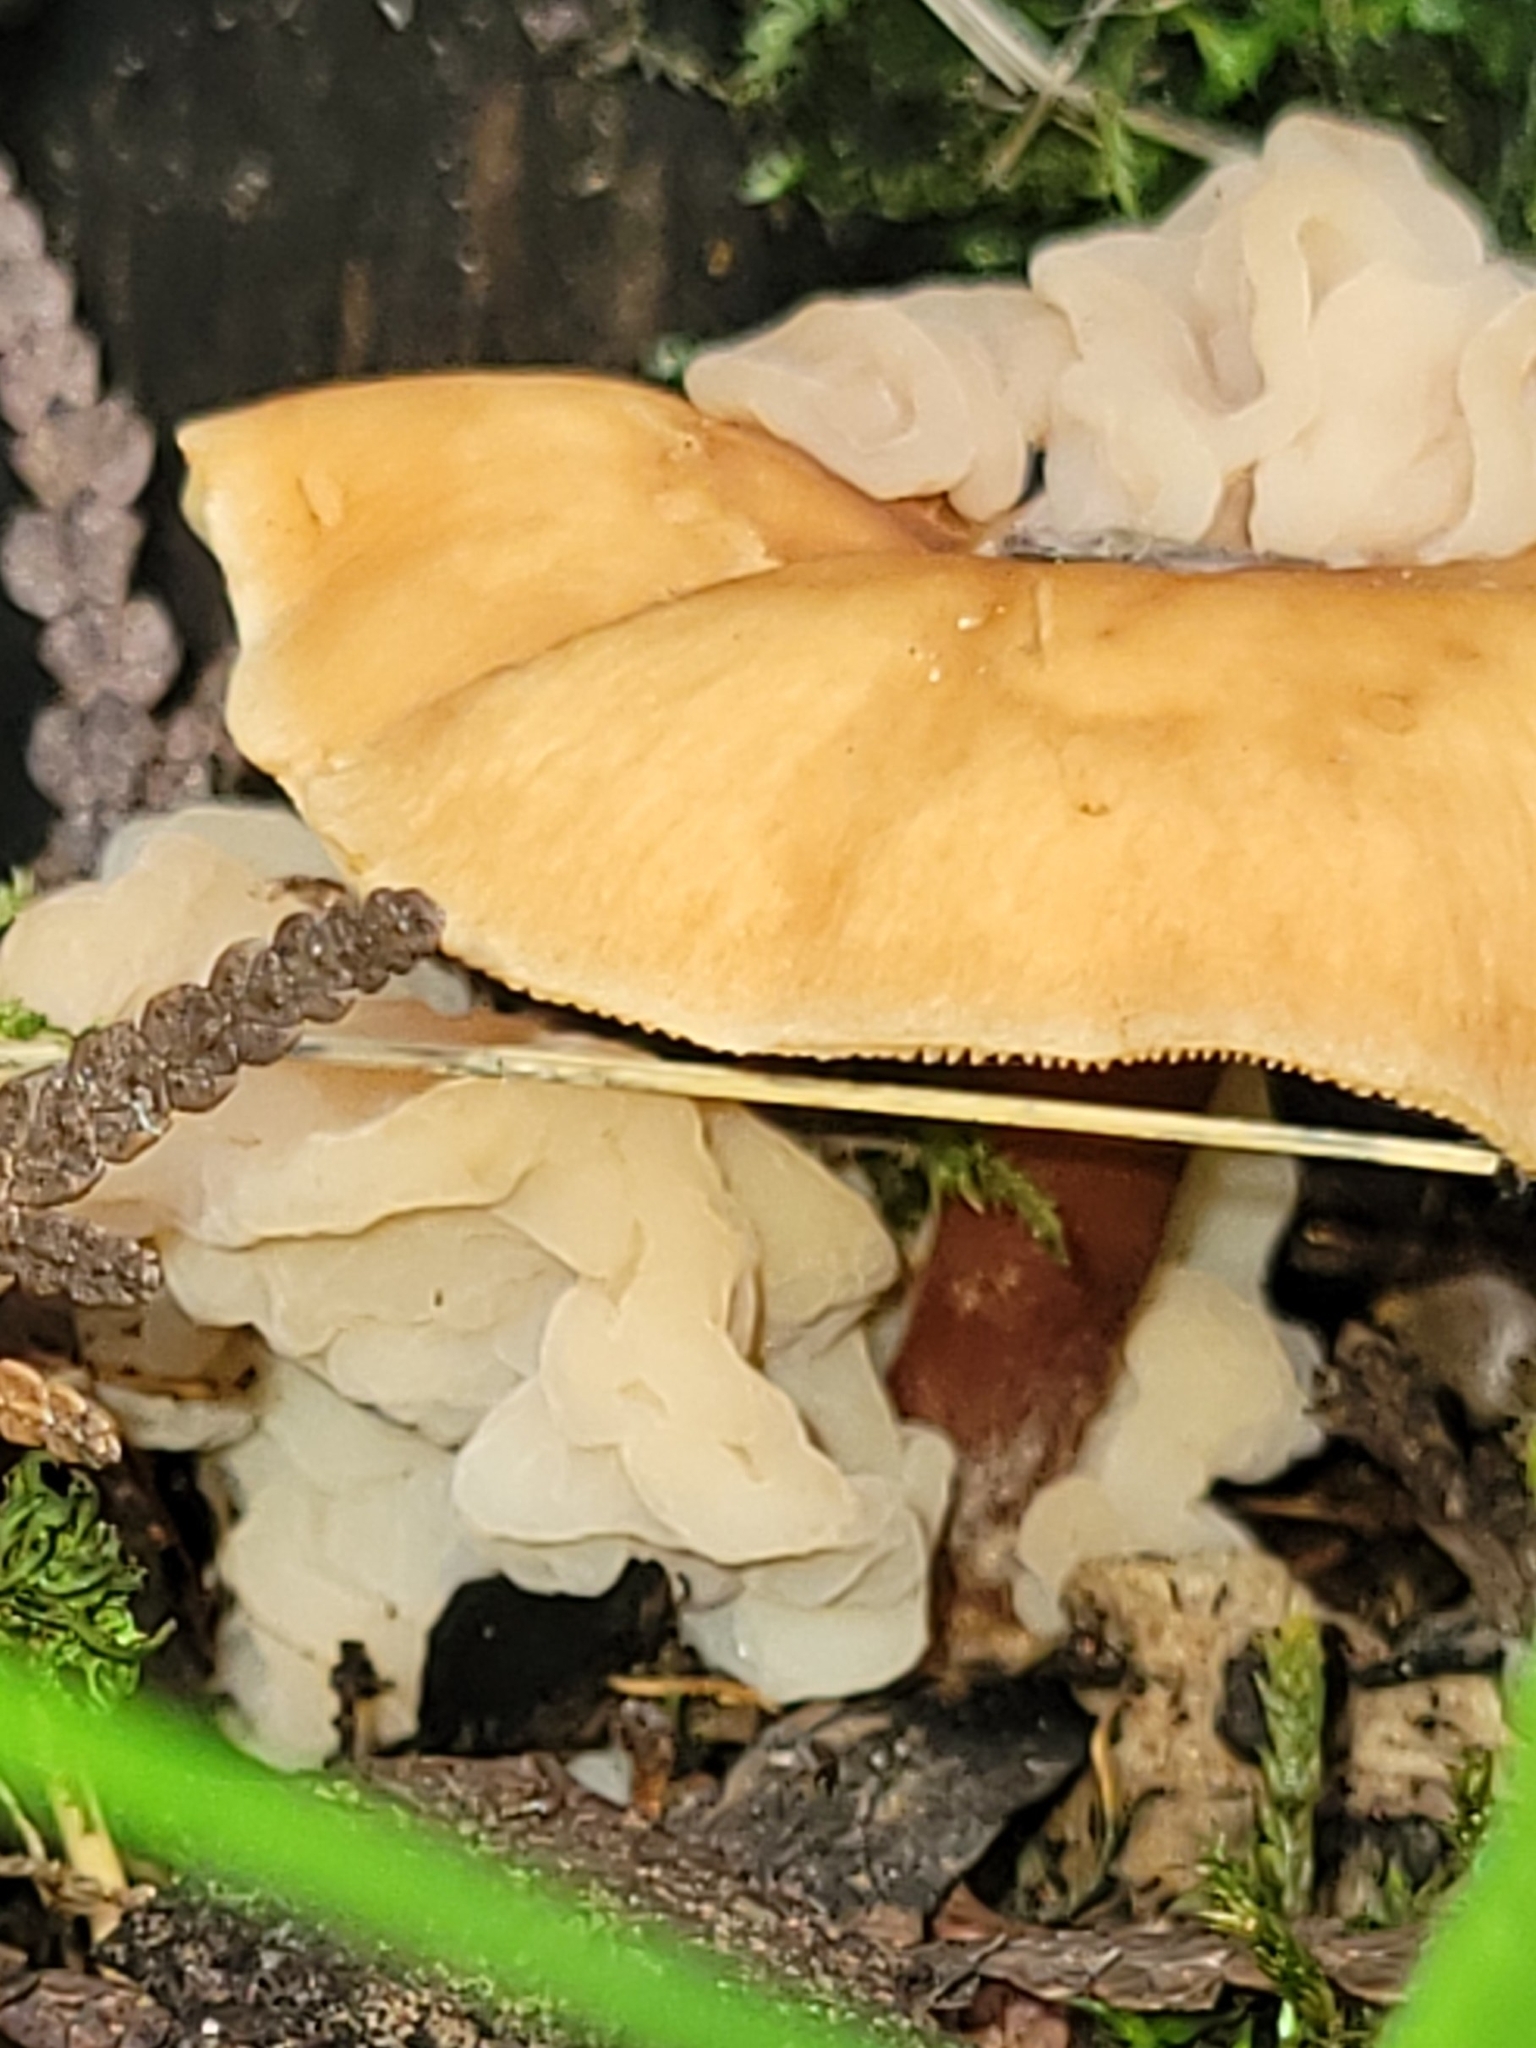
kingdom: Fungi
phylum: Basidiomycota
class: Tremellomycetes
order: Filobasidiales
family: Filobasidiaceae
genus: Syzygospora
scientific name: Syzygospora mycetophila
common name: Collybia clouds
